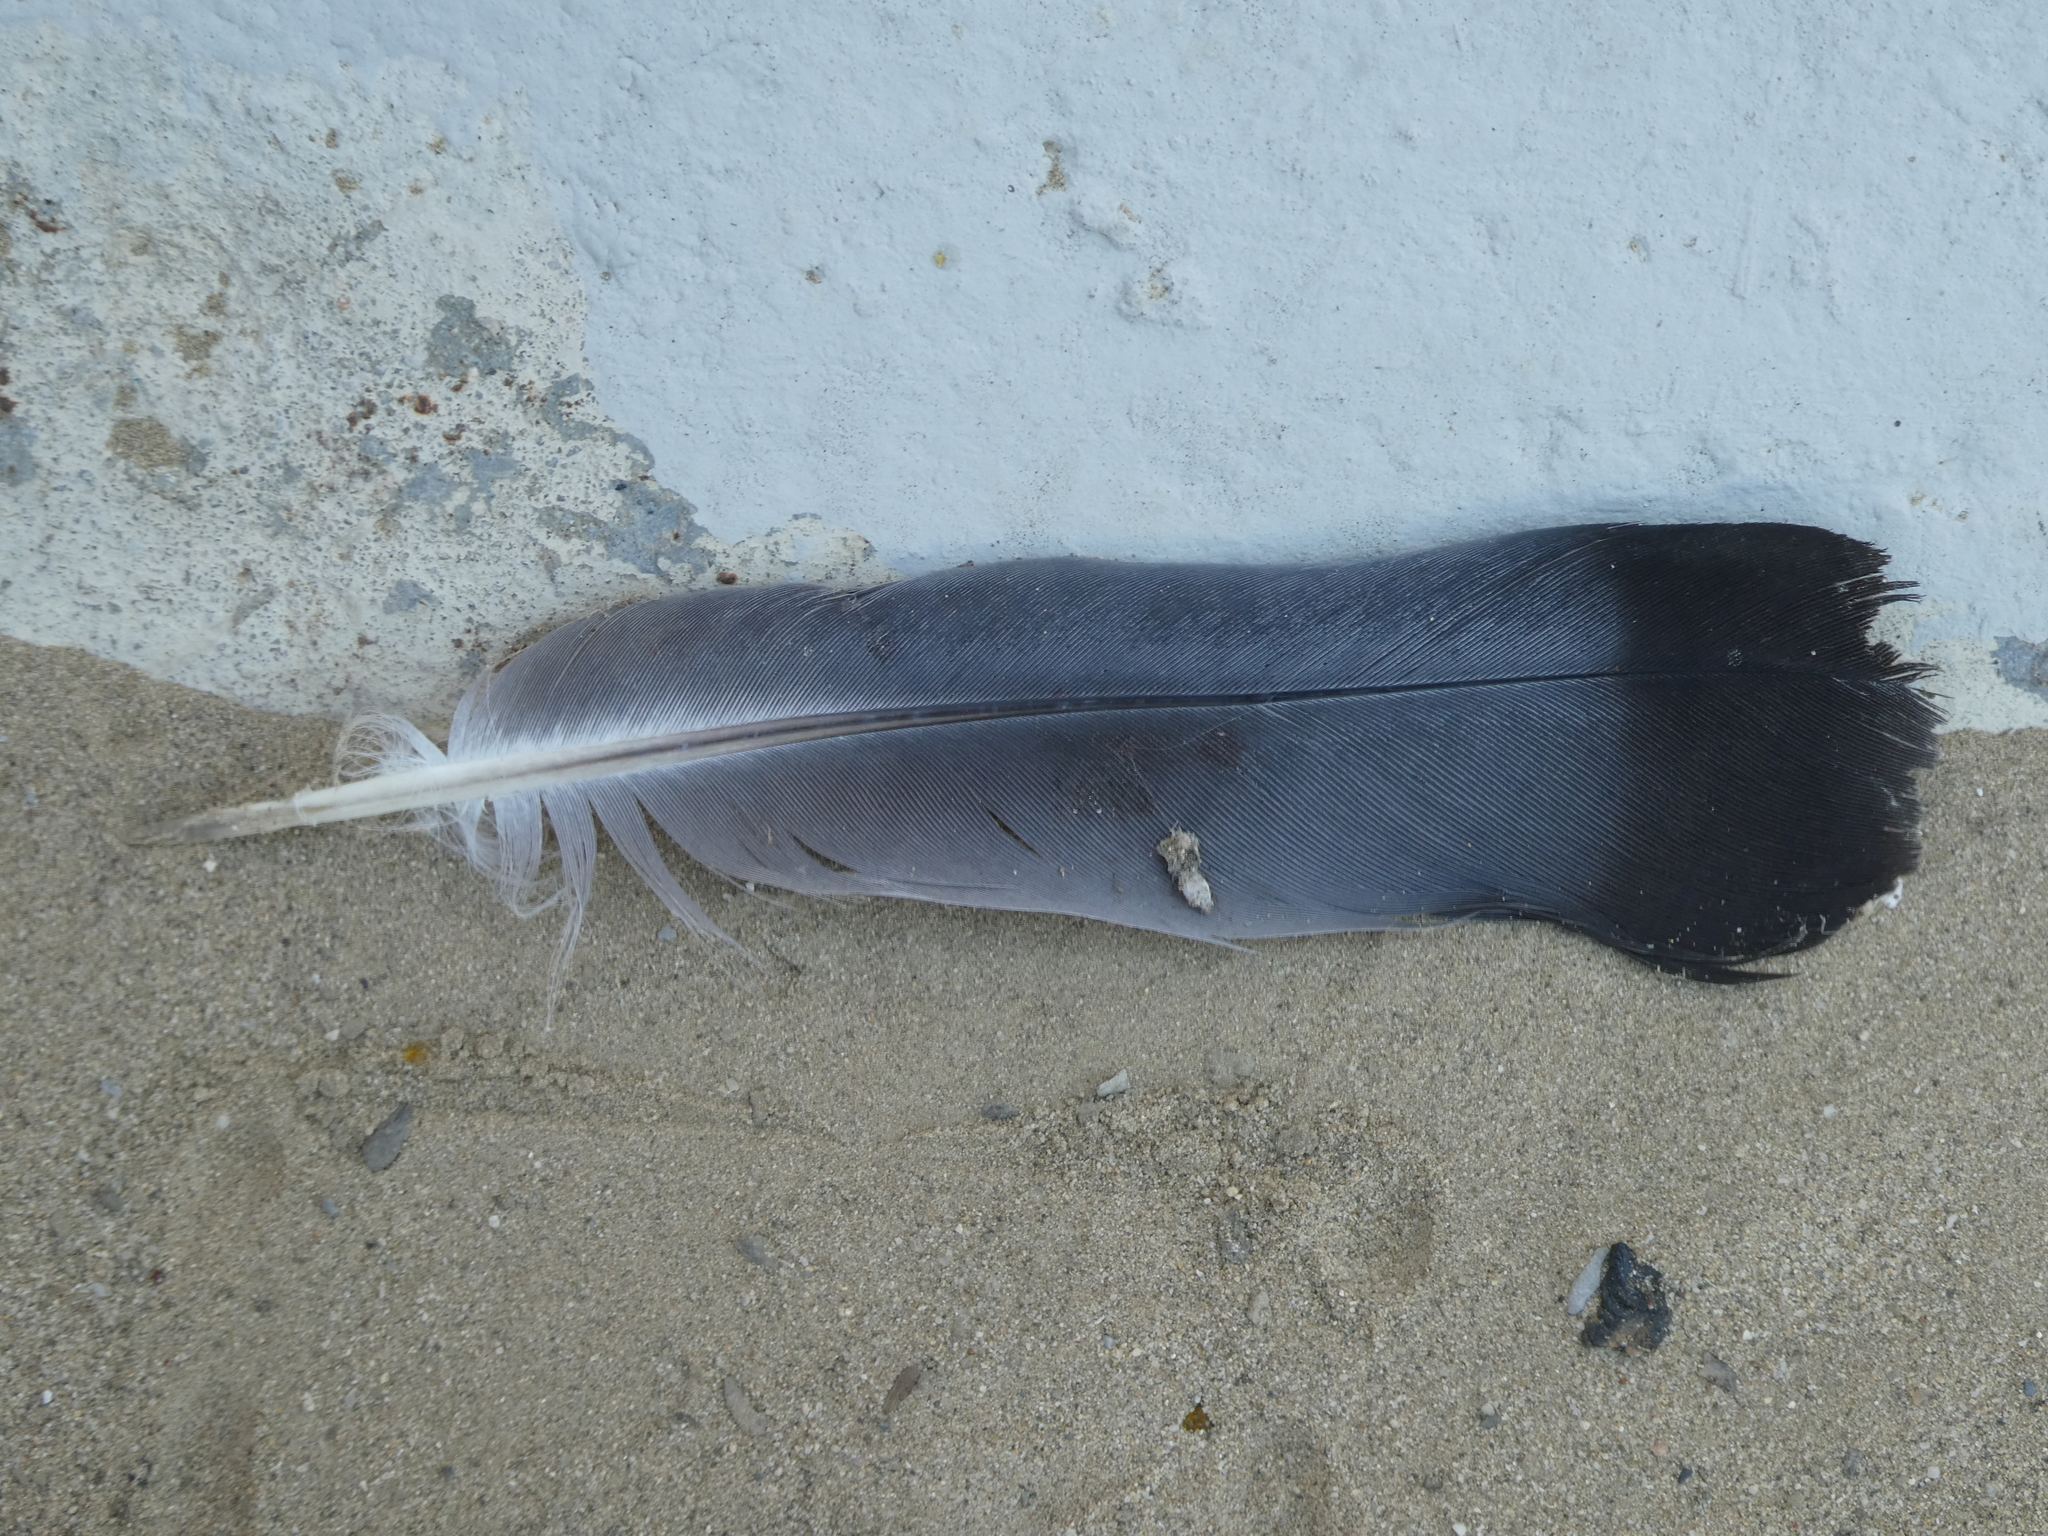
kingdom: Animalia
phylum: Chordata
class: Aves
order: Columbiformes
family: Columbidae
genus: Columba
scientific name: Columba livia
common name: Rock pigeon
